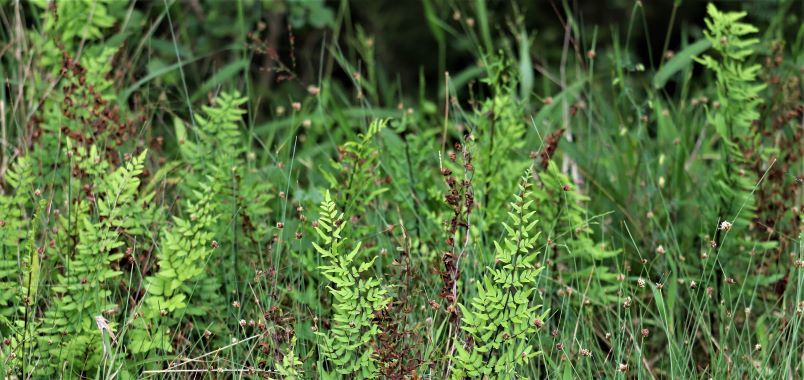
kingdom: Plantae
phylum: Tracheophyta
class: Polypodiopsida
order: Polypodiales
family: Pteridaceae
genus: Cheilanthes
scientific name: Cheilanthes viridis
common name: Green cliffbrake
